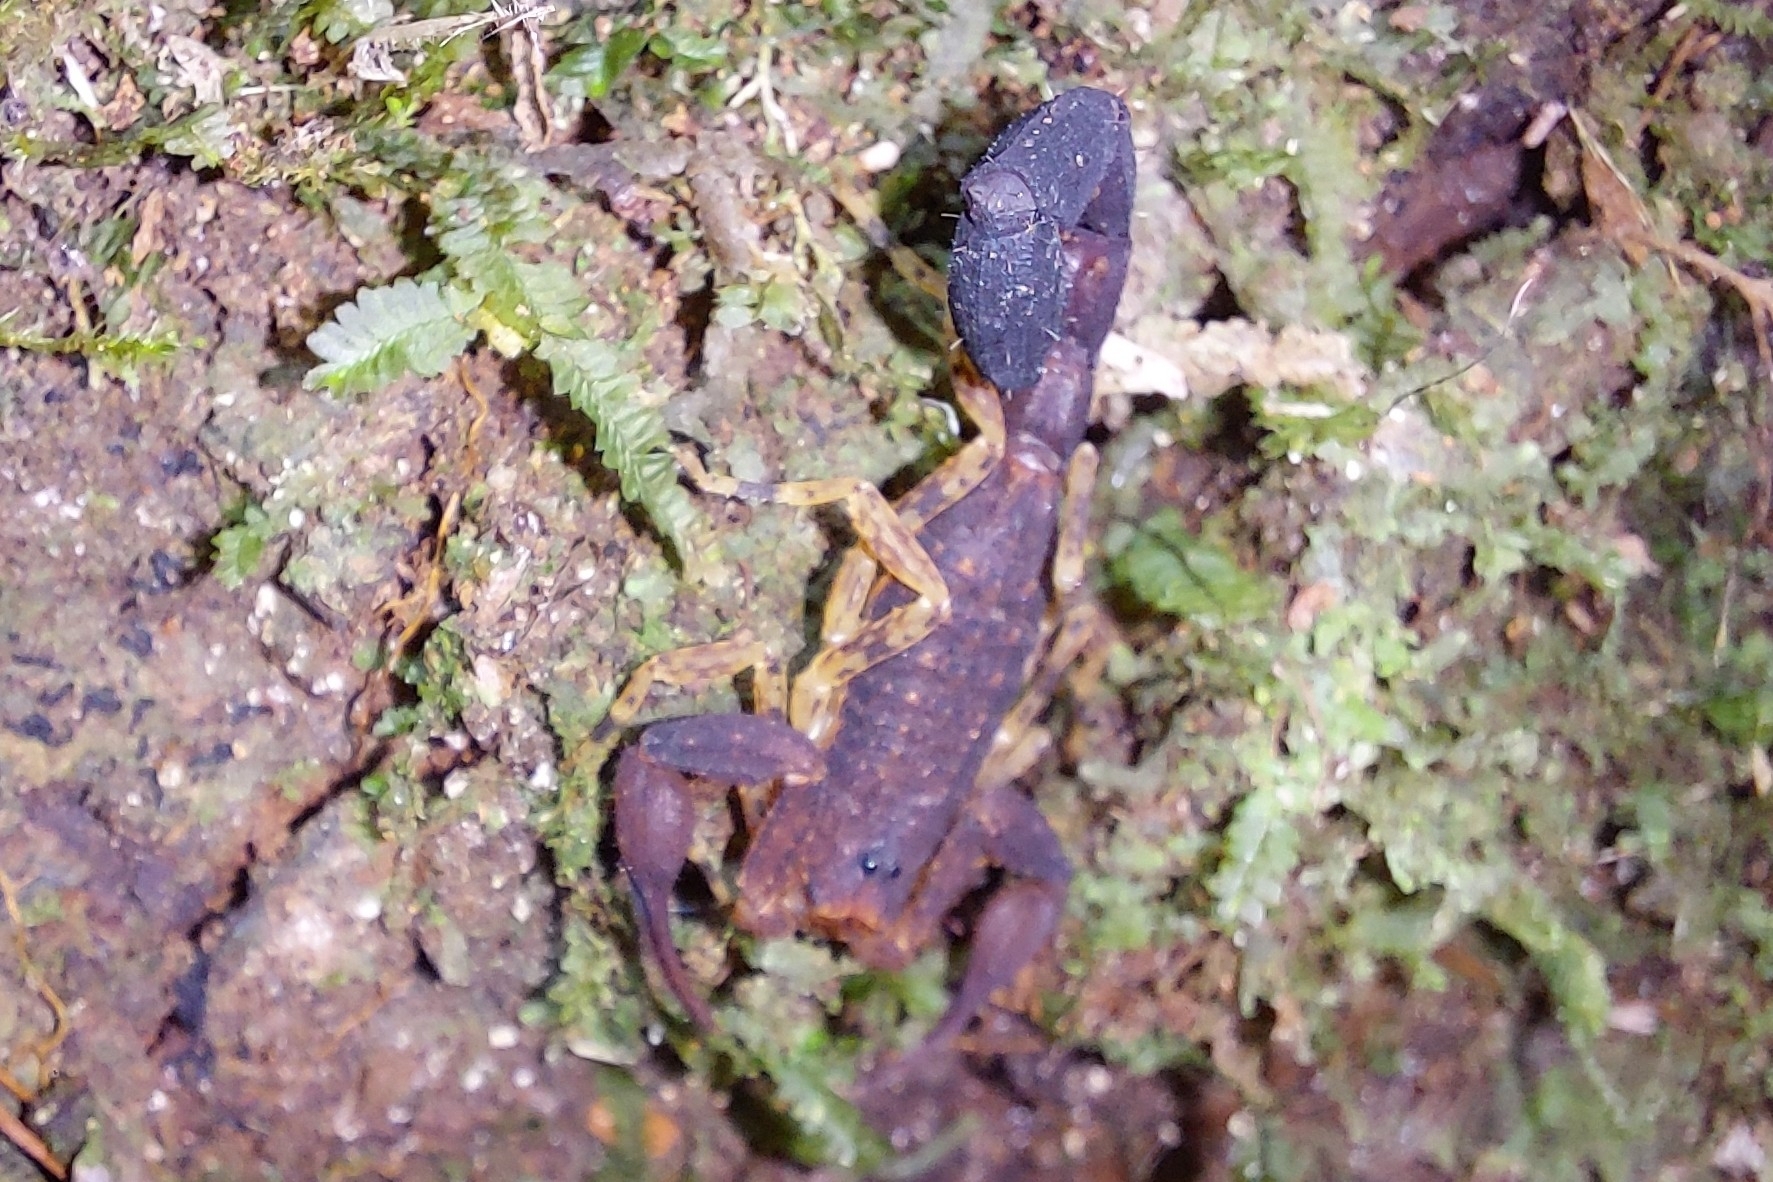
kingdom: Animalia
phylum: Arthropoda
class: Arachnida
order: Scorpiones
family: Buthidae
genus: Tityus
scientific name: Tityus bastosi
